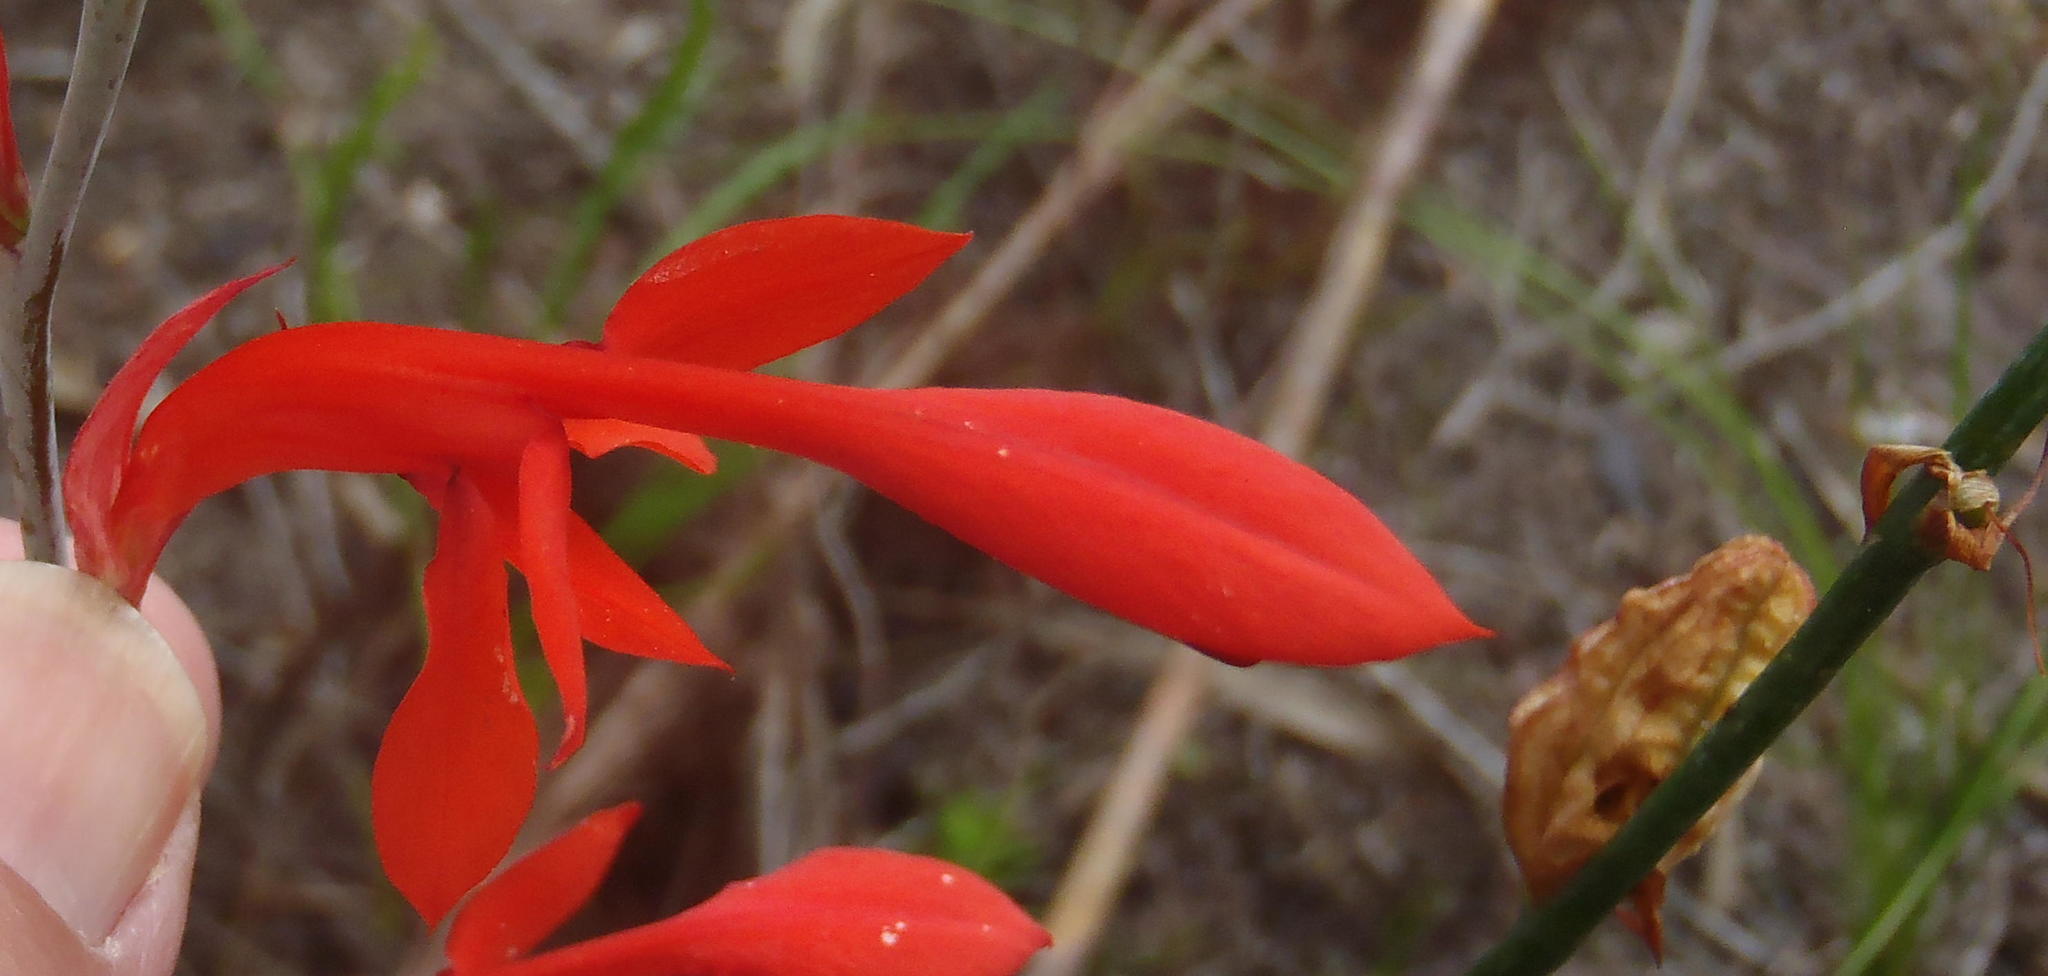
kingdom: Plantae
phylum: Tracheophyta
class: Liliopsida
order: Asparagales
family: Iridaceae
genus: Tritoniopsis
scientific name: Tritoniopsis caffra
